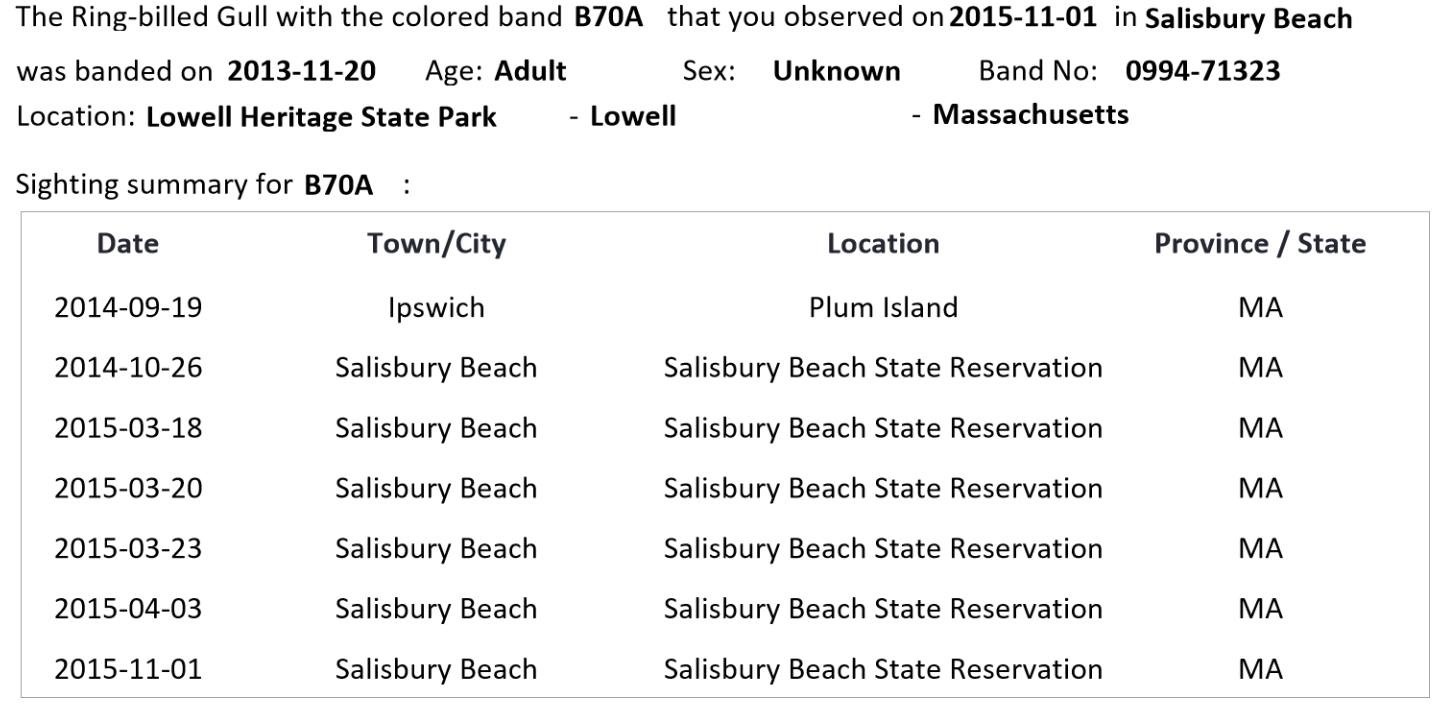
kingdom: Animalia
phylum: Chordata
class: Aves
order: Charadriiformes
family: Laridae
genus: Larus
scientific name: Larus delawarensis
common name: Ring-billed gull
